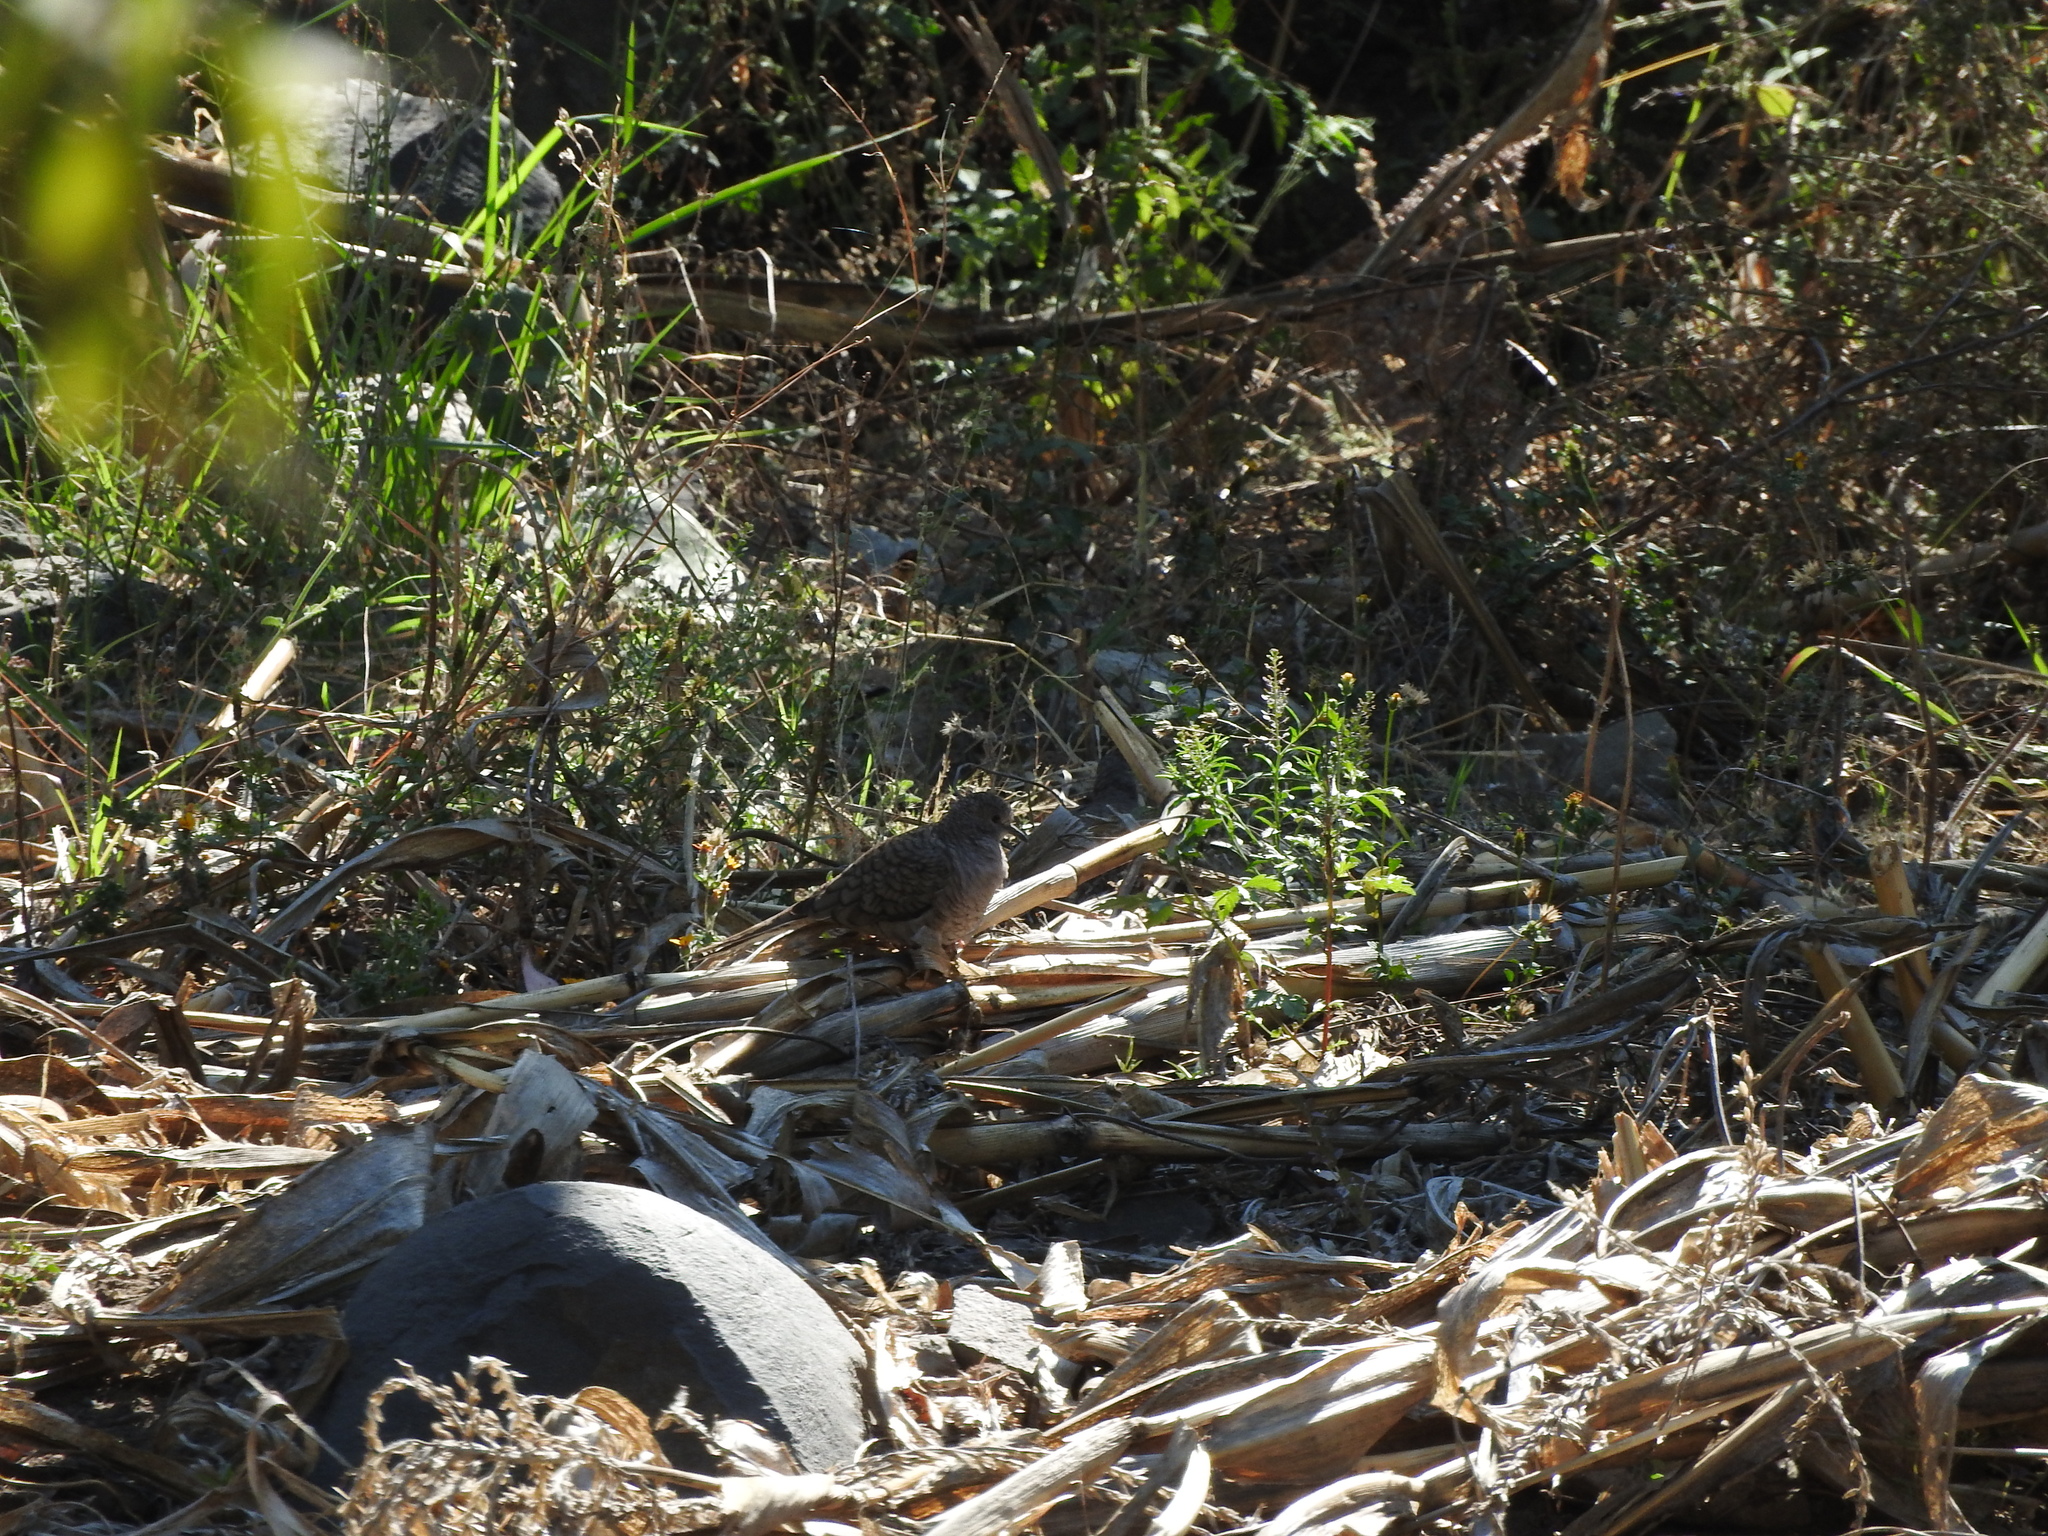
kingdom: Animalia
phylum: Chordata
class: Aves
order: Columbiformes
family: Columbidae
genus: Columbina
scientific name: Columbina inca
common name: Inca dove
